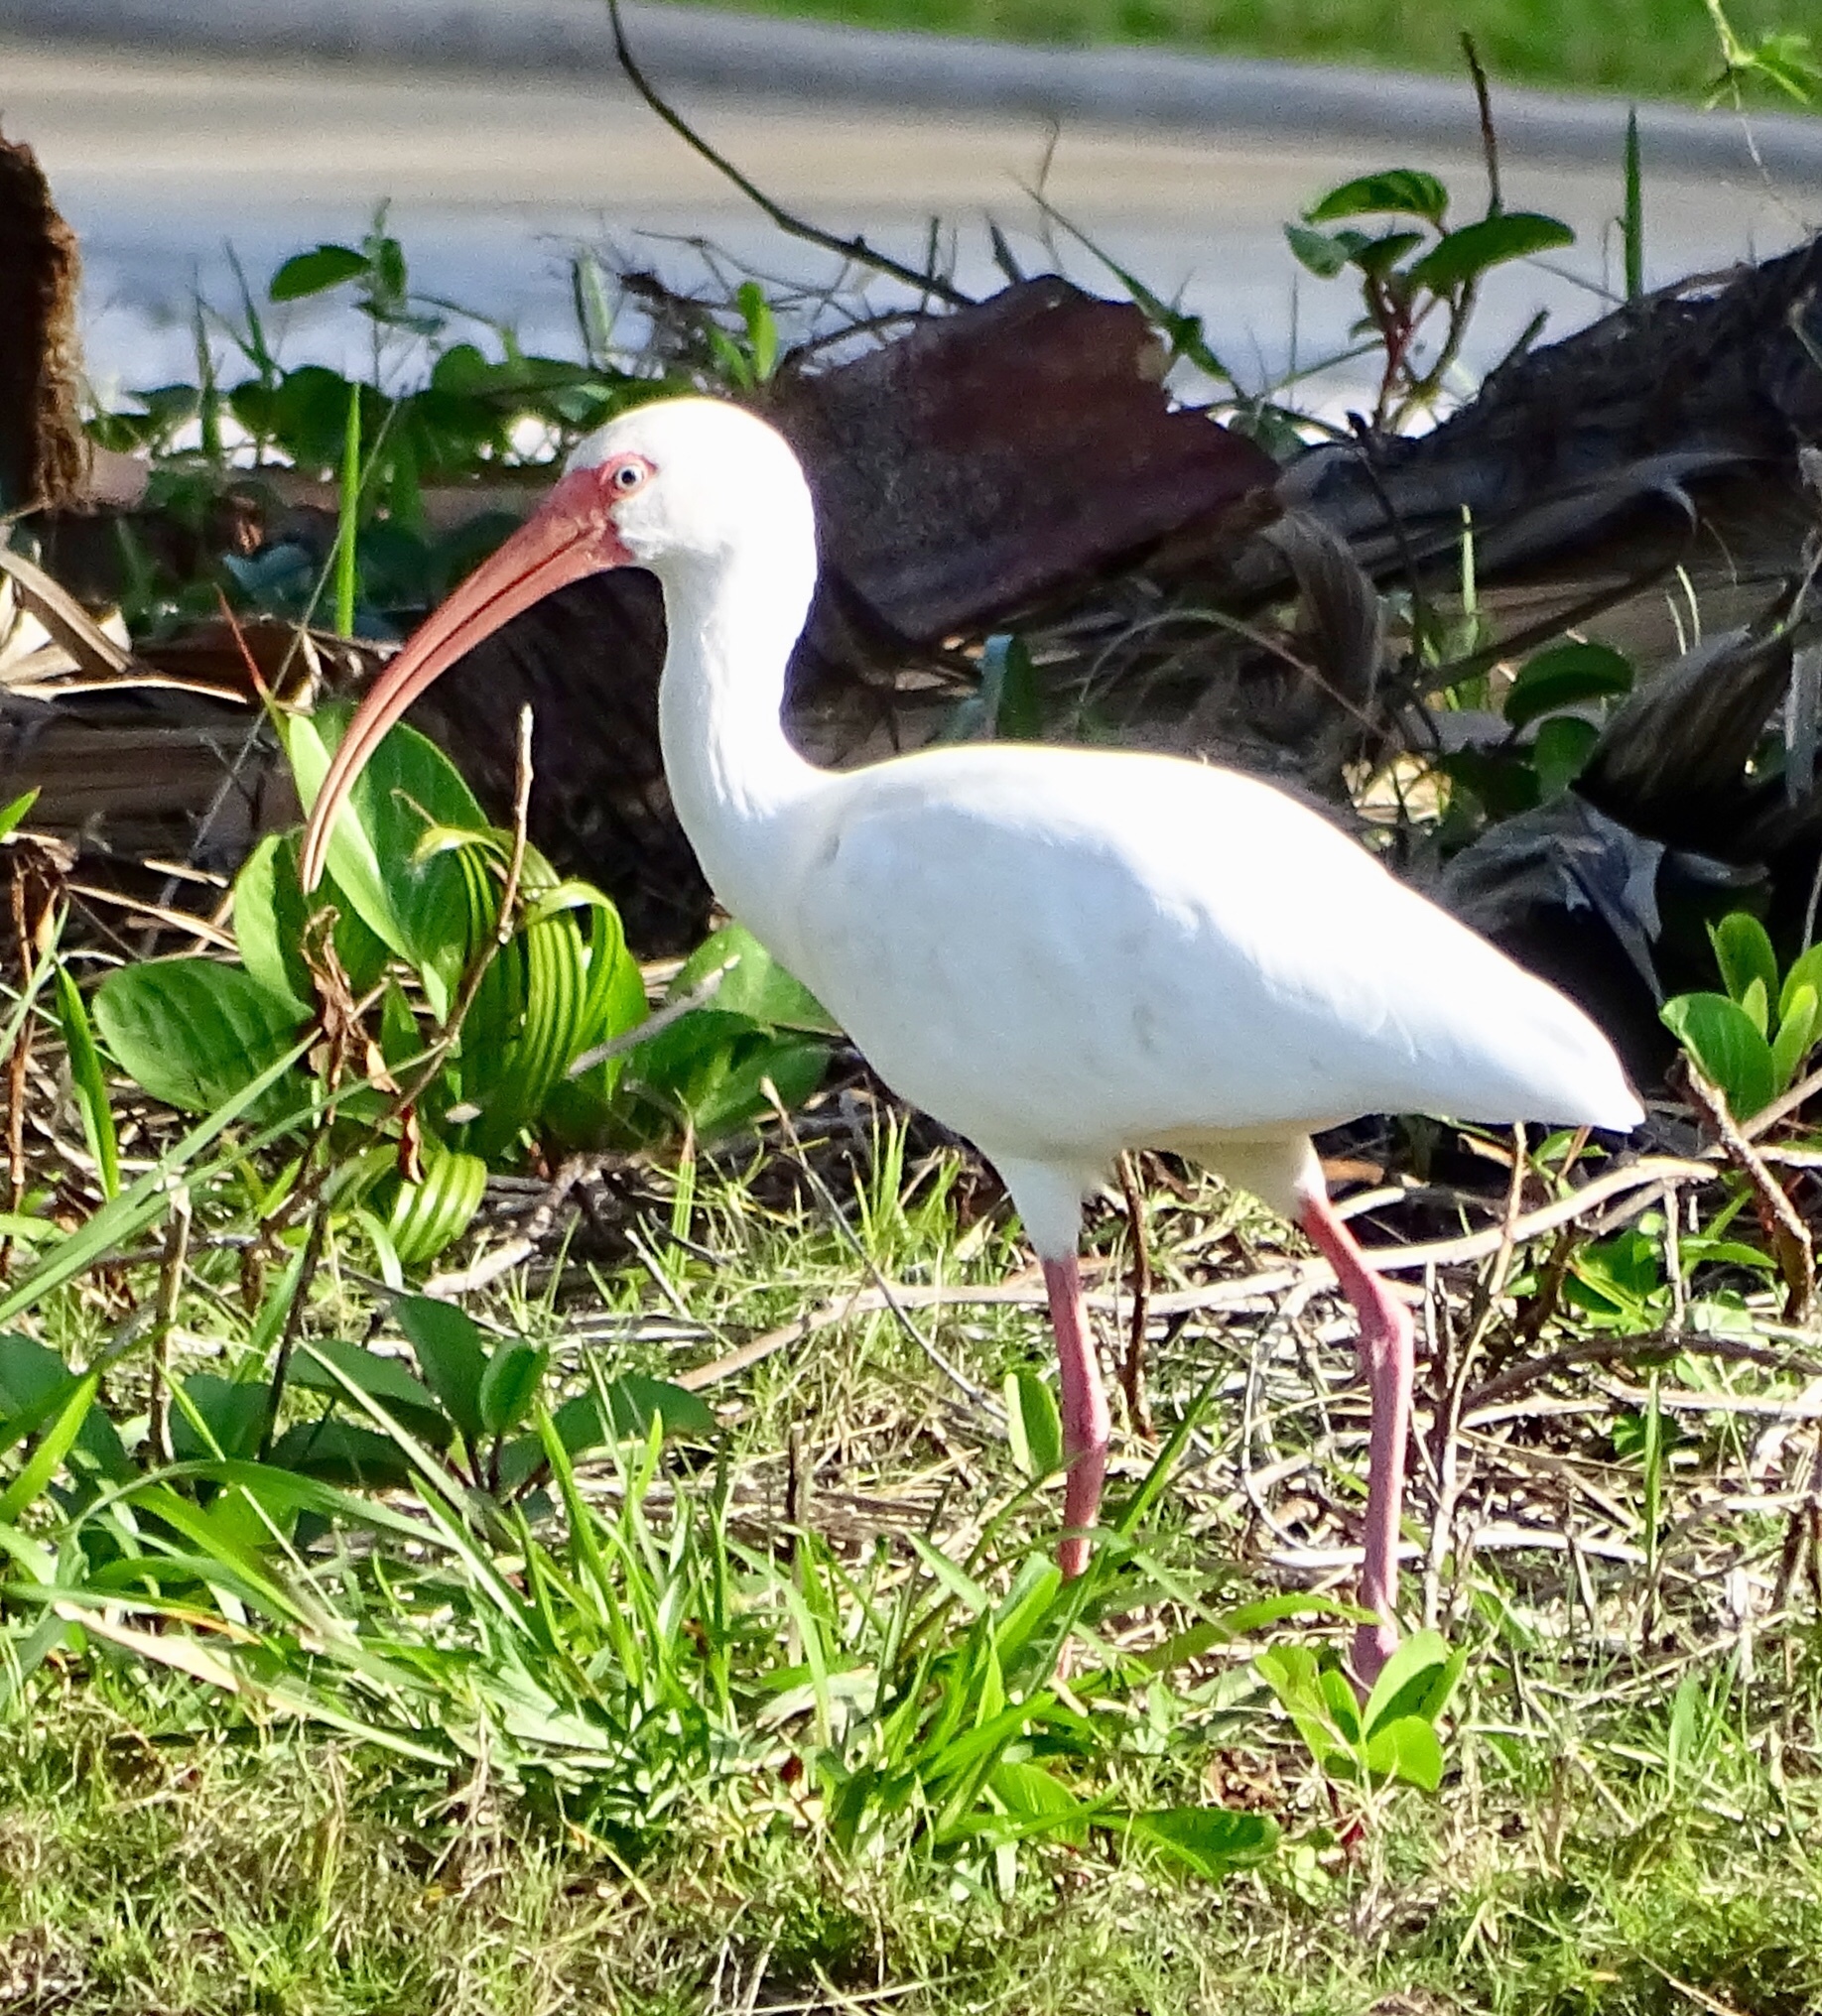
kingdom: Animalia
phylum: Chordata
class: Aves
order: Pelecaniformes
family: Threskiornithidae
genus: Eudocimus
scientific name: Eudocimus albus
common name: White ibis
